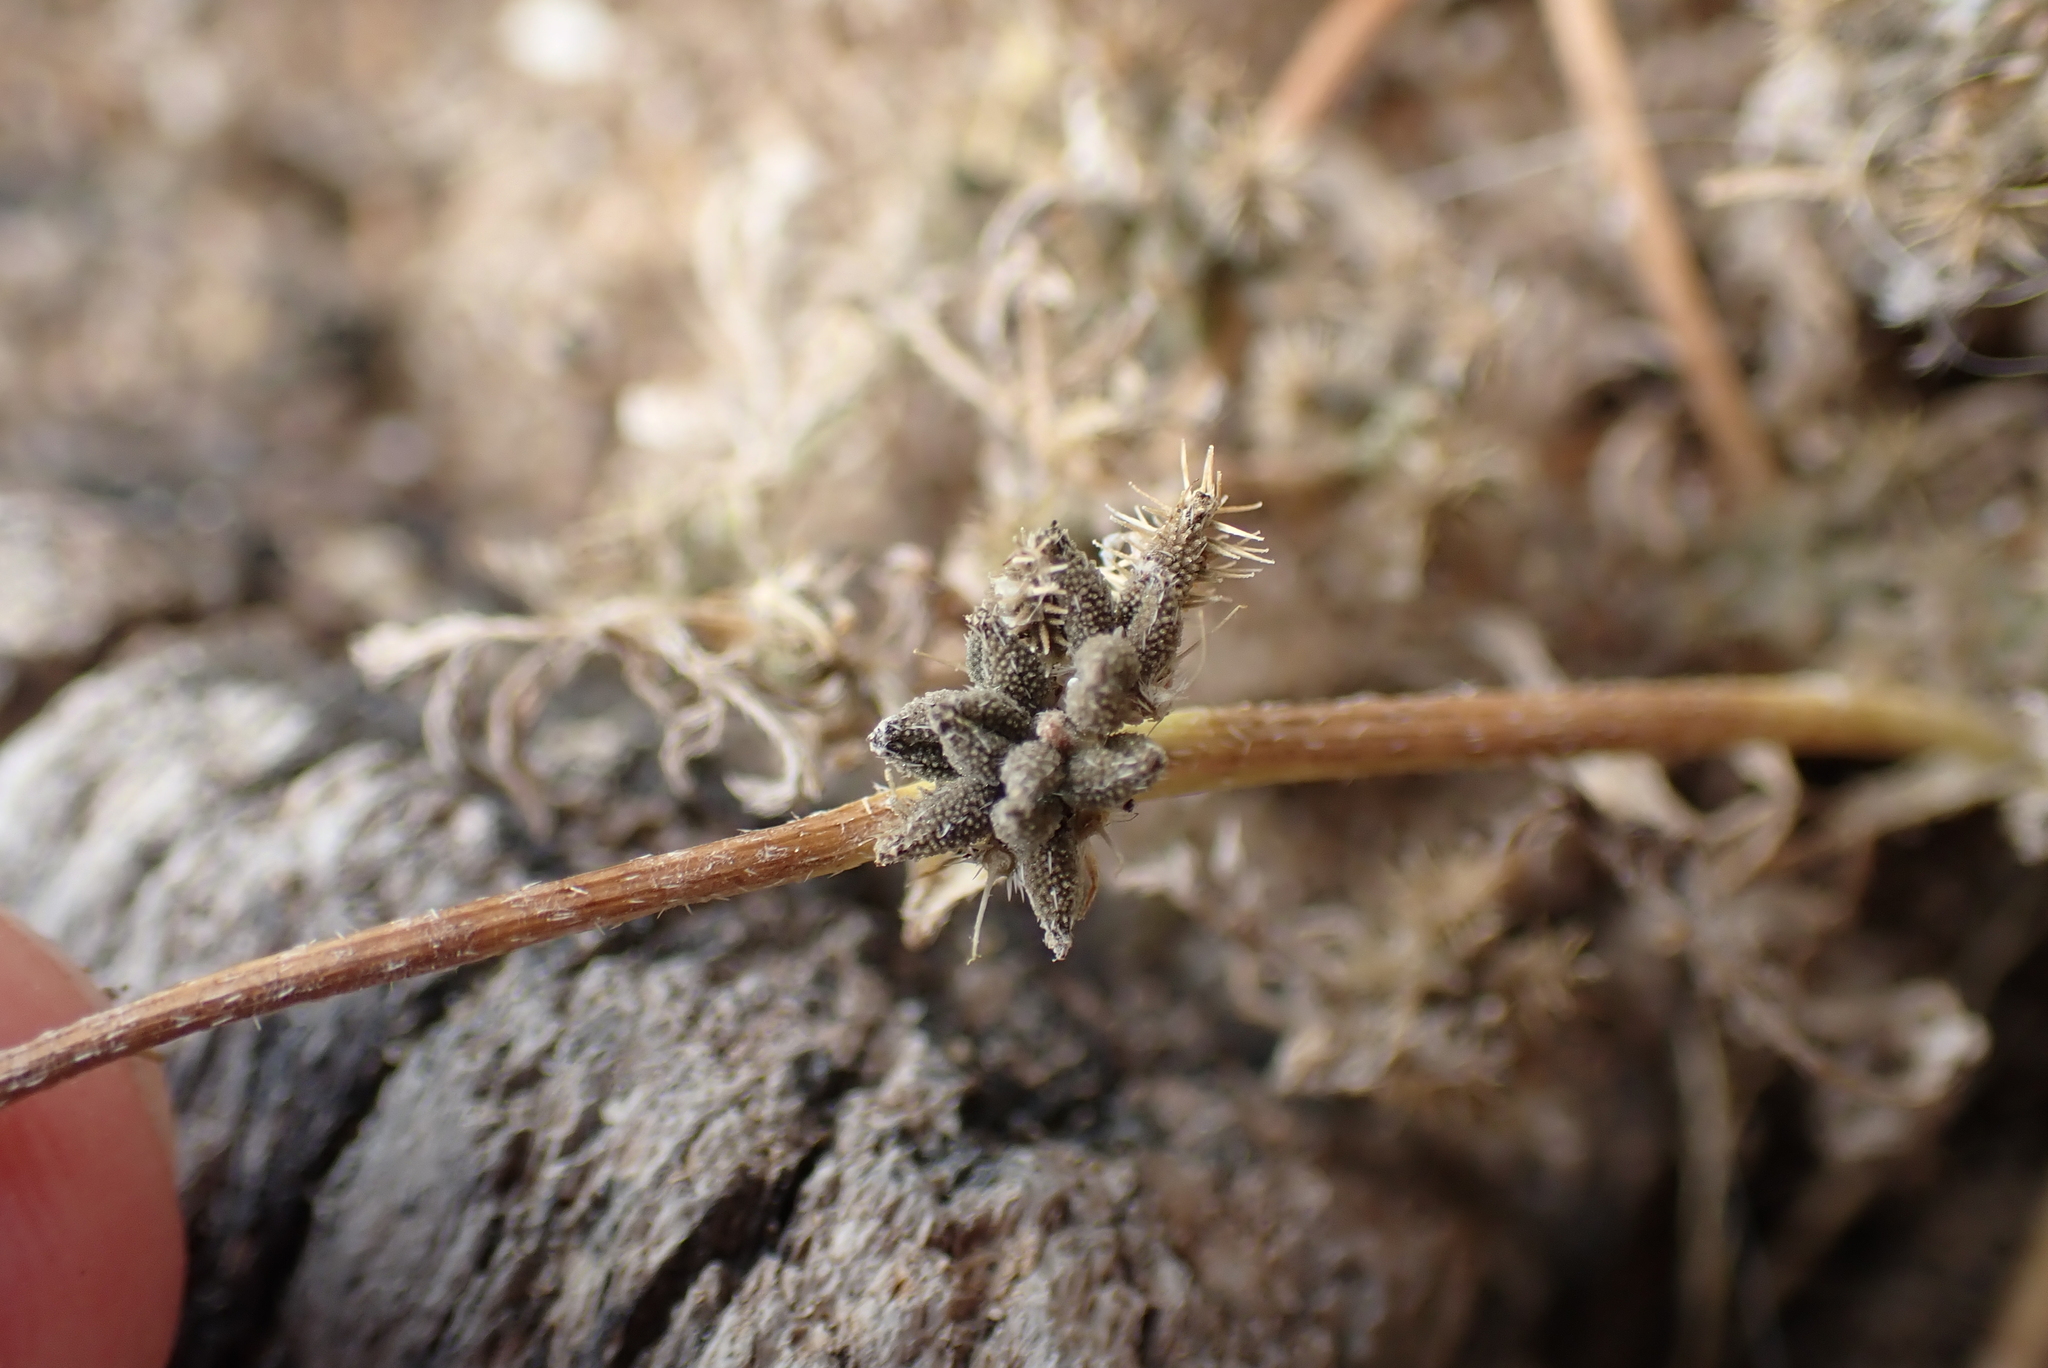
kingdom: Plantae
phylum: Tracheophyta
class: Magnoliopsida
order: Apiales
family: Apiaceae
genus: Torilis
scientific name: Torilis nodosa
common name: Knotted hedge-parsley
